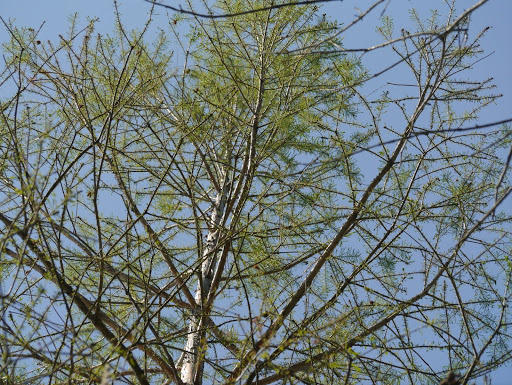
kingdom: Plantae
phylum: Tracheophyta
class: Pinopsida
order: Pinales
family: Cupressaceae
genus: Taxodium
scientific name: Taxodium distichum
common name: Bald cypress
